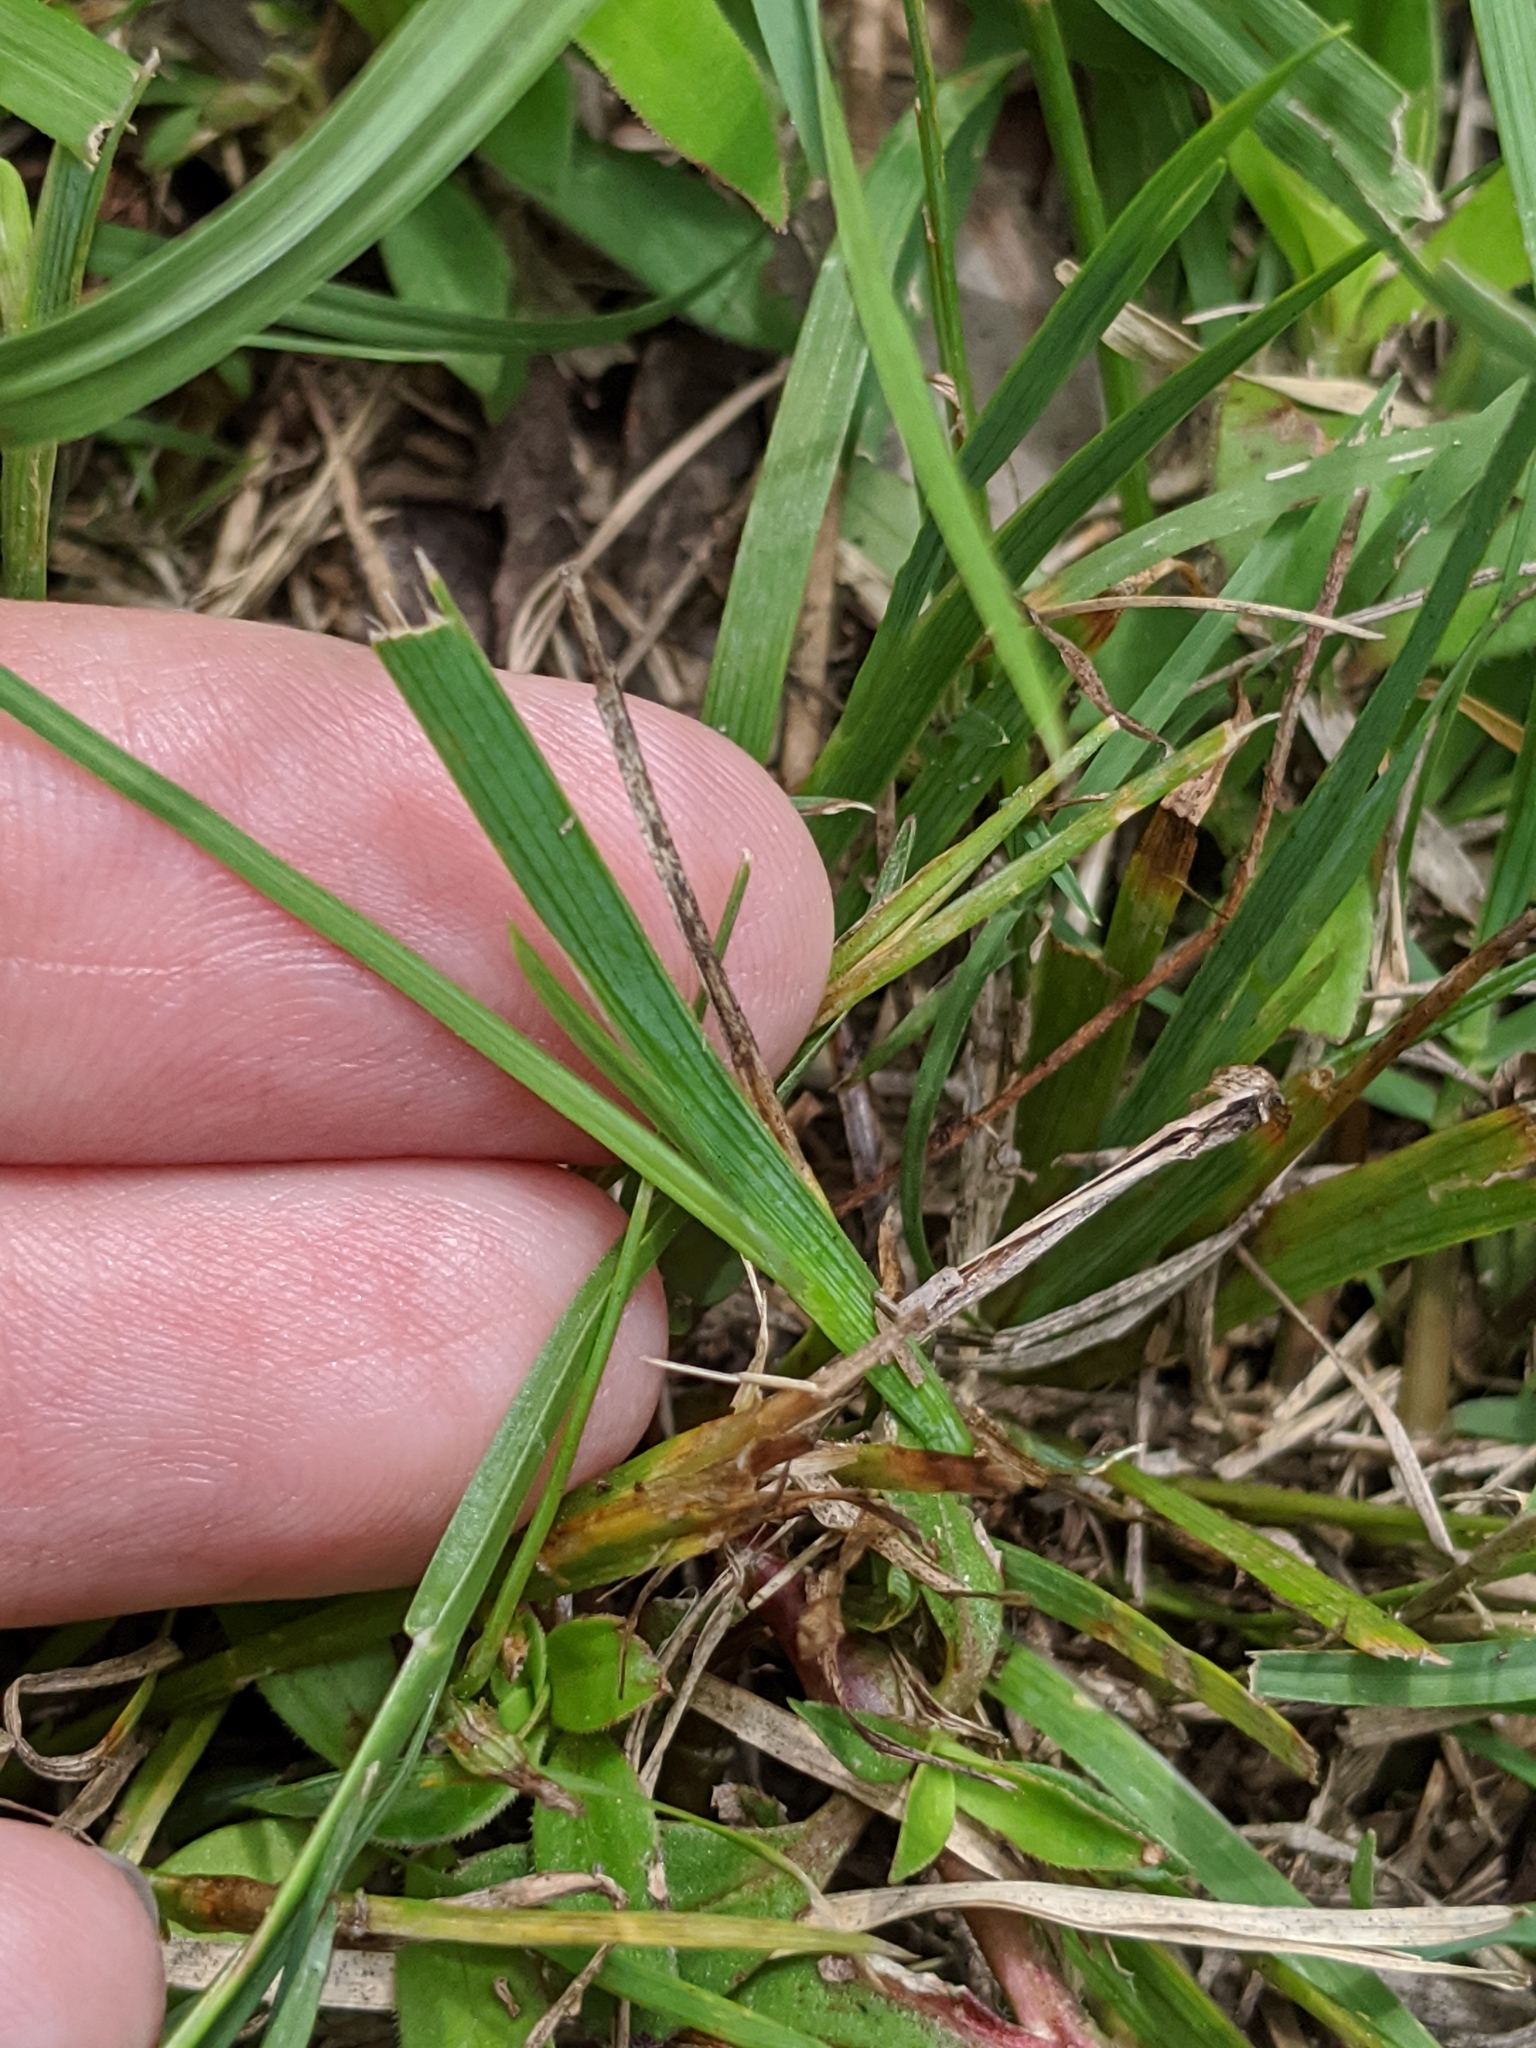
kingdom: Plantae
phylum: Tracheophyta
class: Liliopsida
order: Asparagales
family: Iridaceae
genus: Sisyrinchium
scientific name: Sisyrinchium micranthum
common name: Bermuda pigroot
